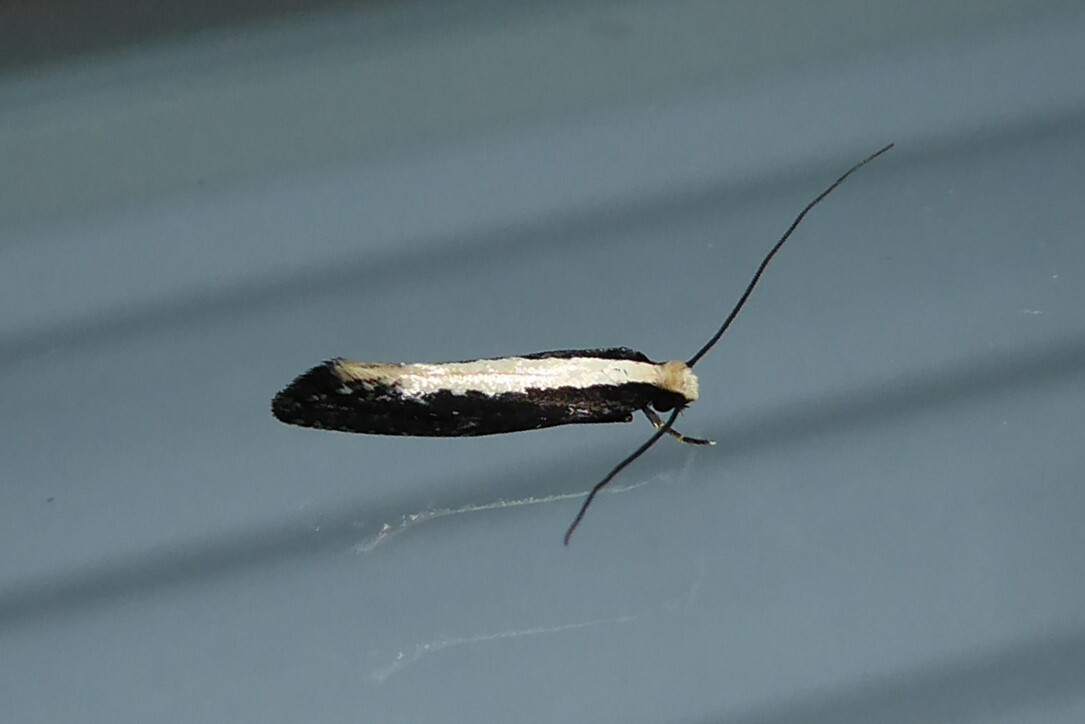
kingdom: Animalia
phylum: Arthropoda
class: Insecta
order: Lepidoptera
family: Tineidae
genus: Monopis
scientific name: Monopis ethelella
